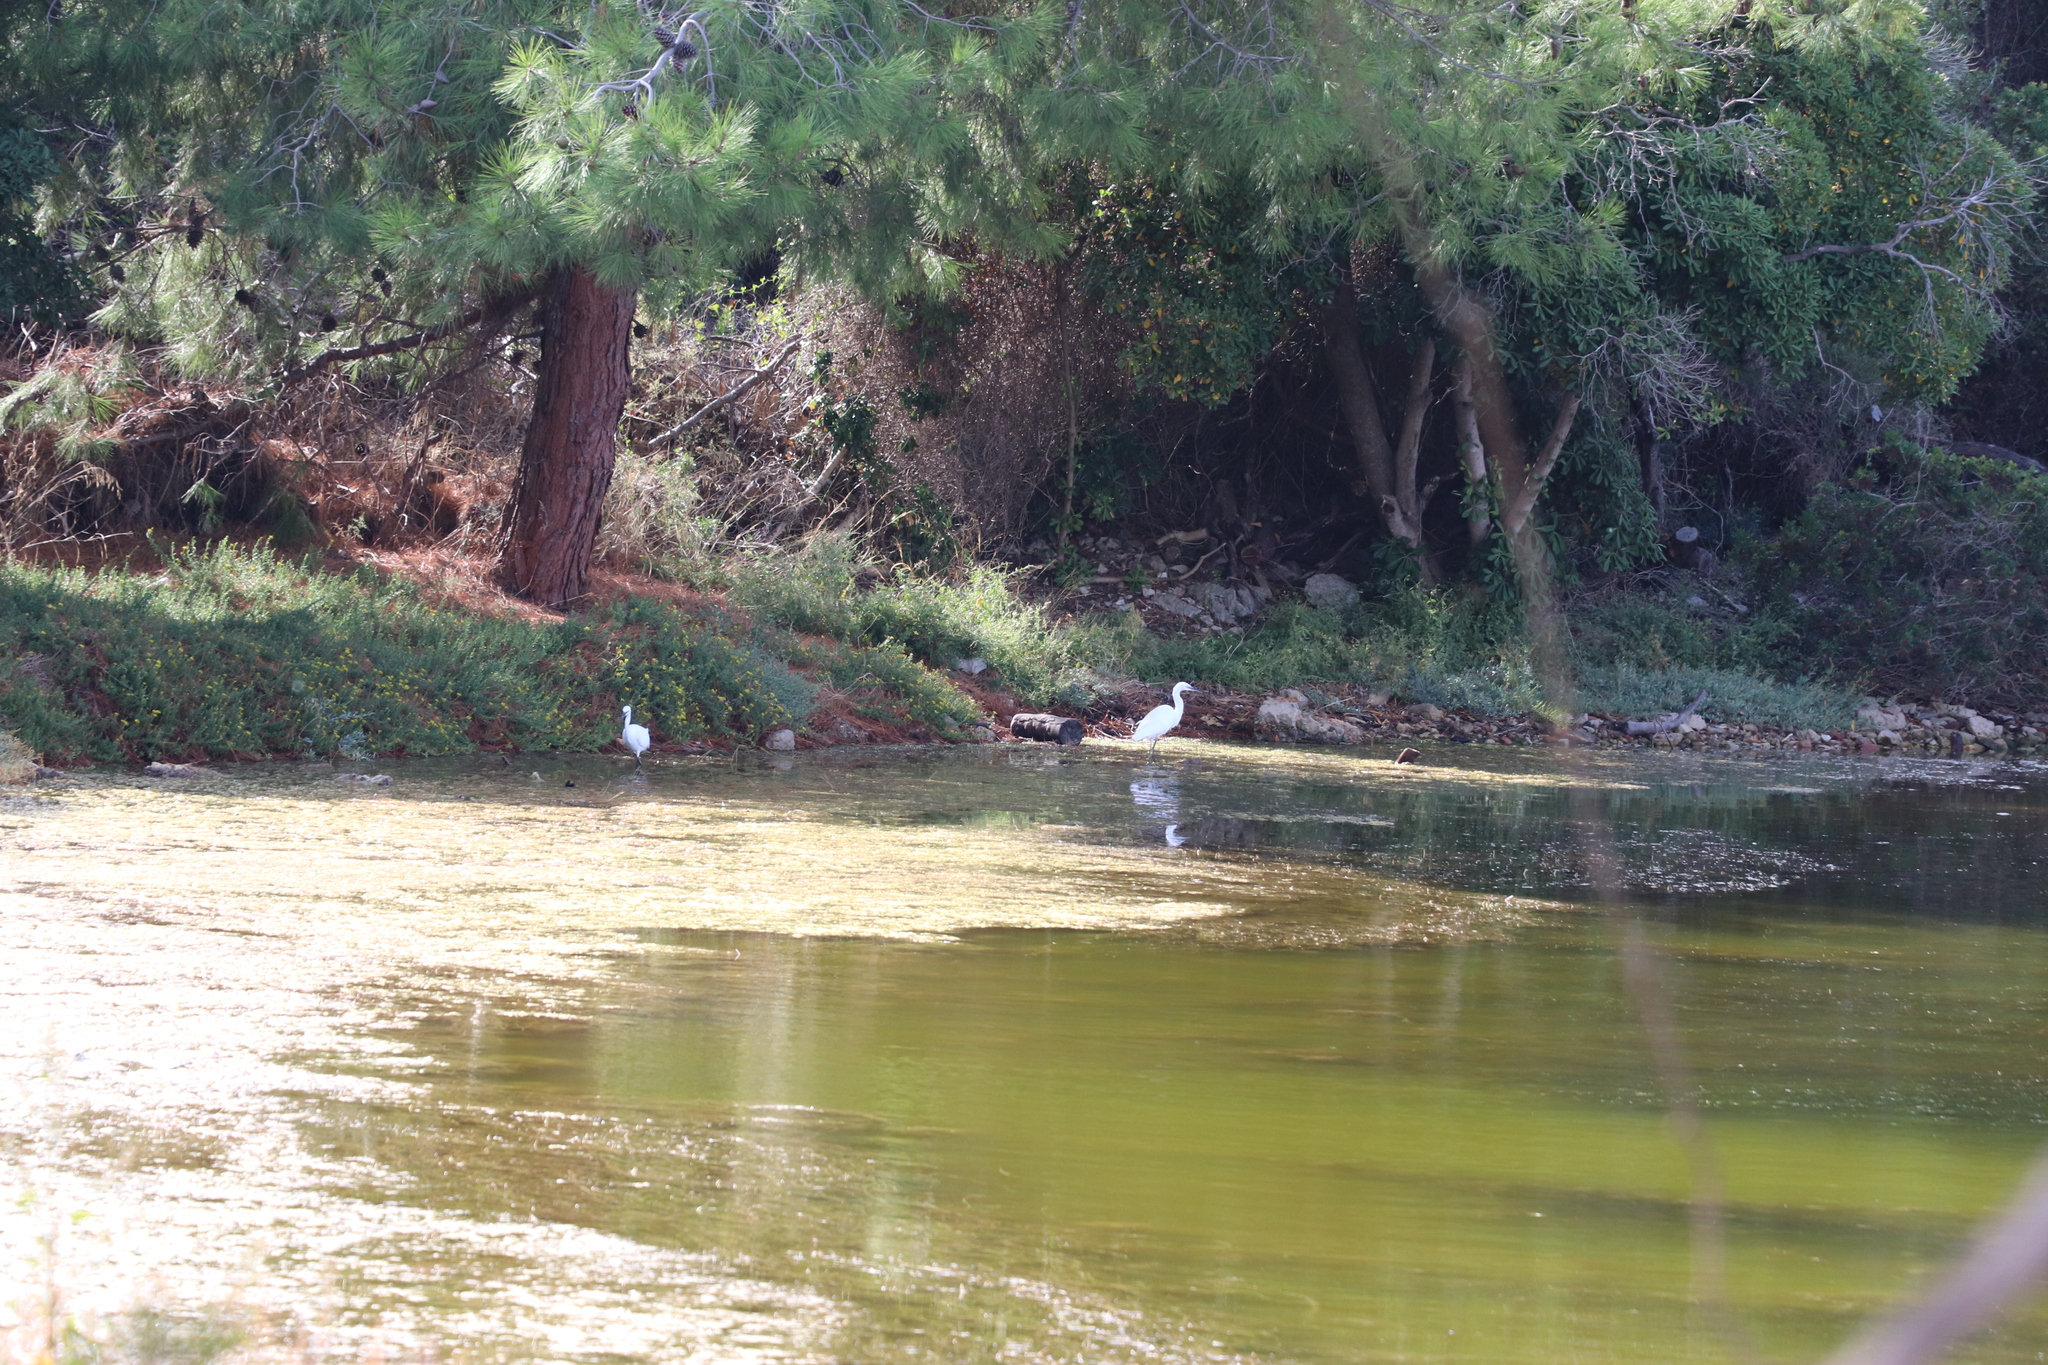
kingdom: Animalia
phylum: Chordata
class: Aves
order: Pelecaniformes
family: Ardeidae
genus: Egretta
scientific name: Egretta garzetta
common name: Little egret
